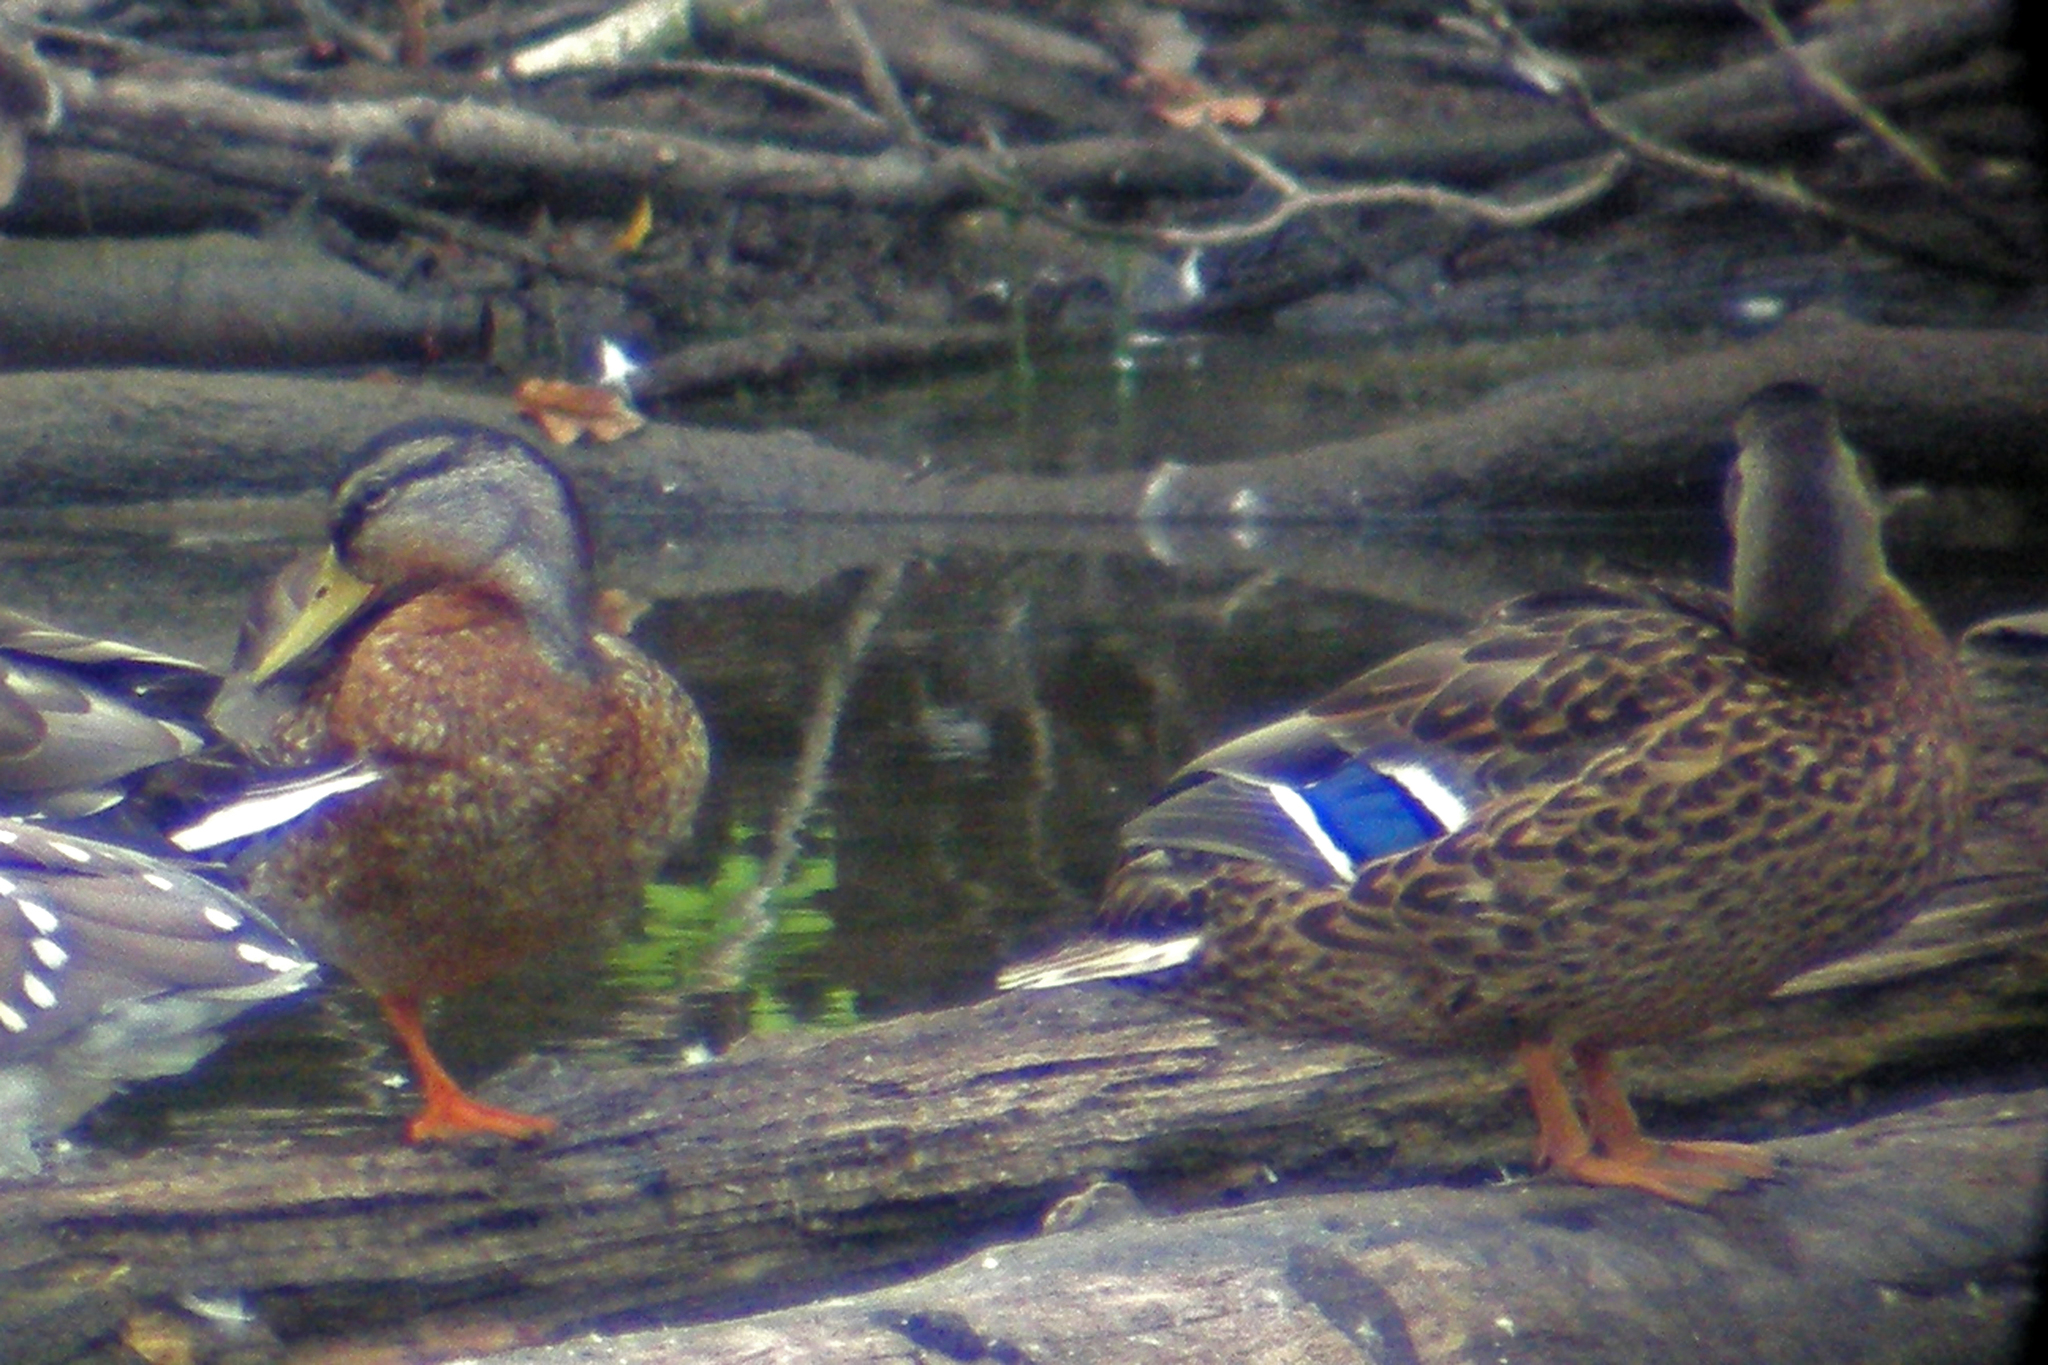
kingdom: Animalia
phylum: Chordata
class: Aves
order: Anseriformes
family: Anatidae
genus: Anas
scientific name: Anas platyrhynchos
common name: Mallard
